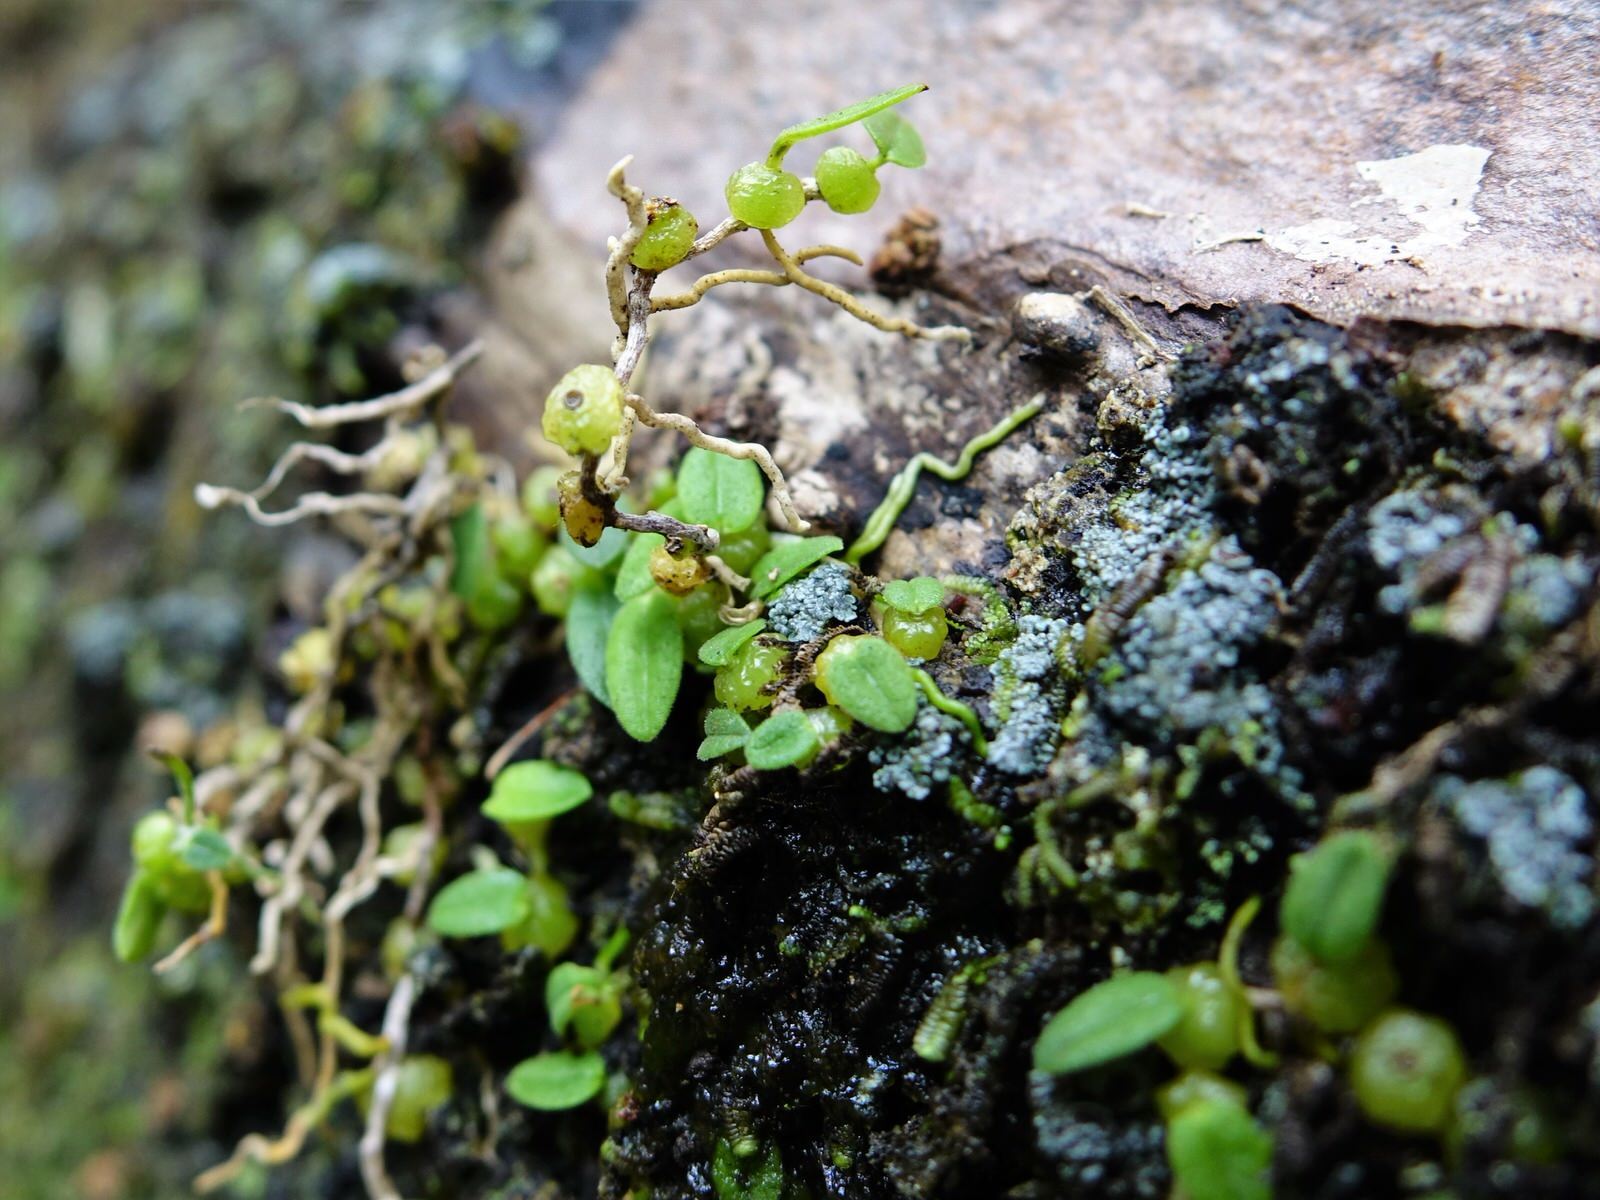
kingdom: Plantae
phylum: Tracheophyta
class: Liliopsida
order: Asparagales
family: Orchidaceae
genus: Bulbophyllum
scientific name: Bulbophyllum pygmaeum
